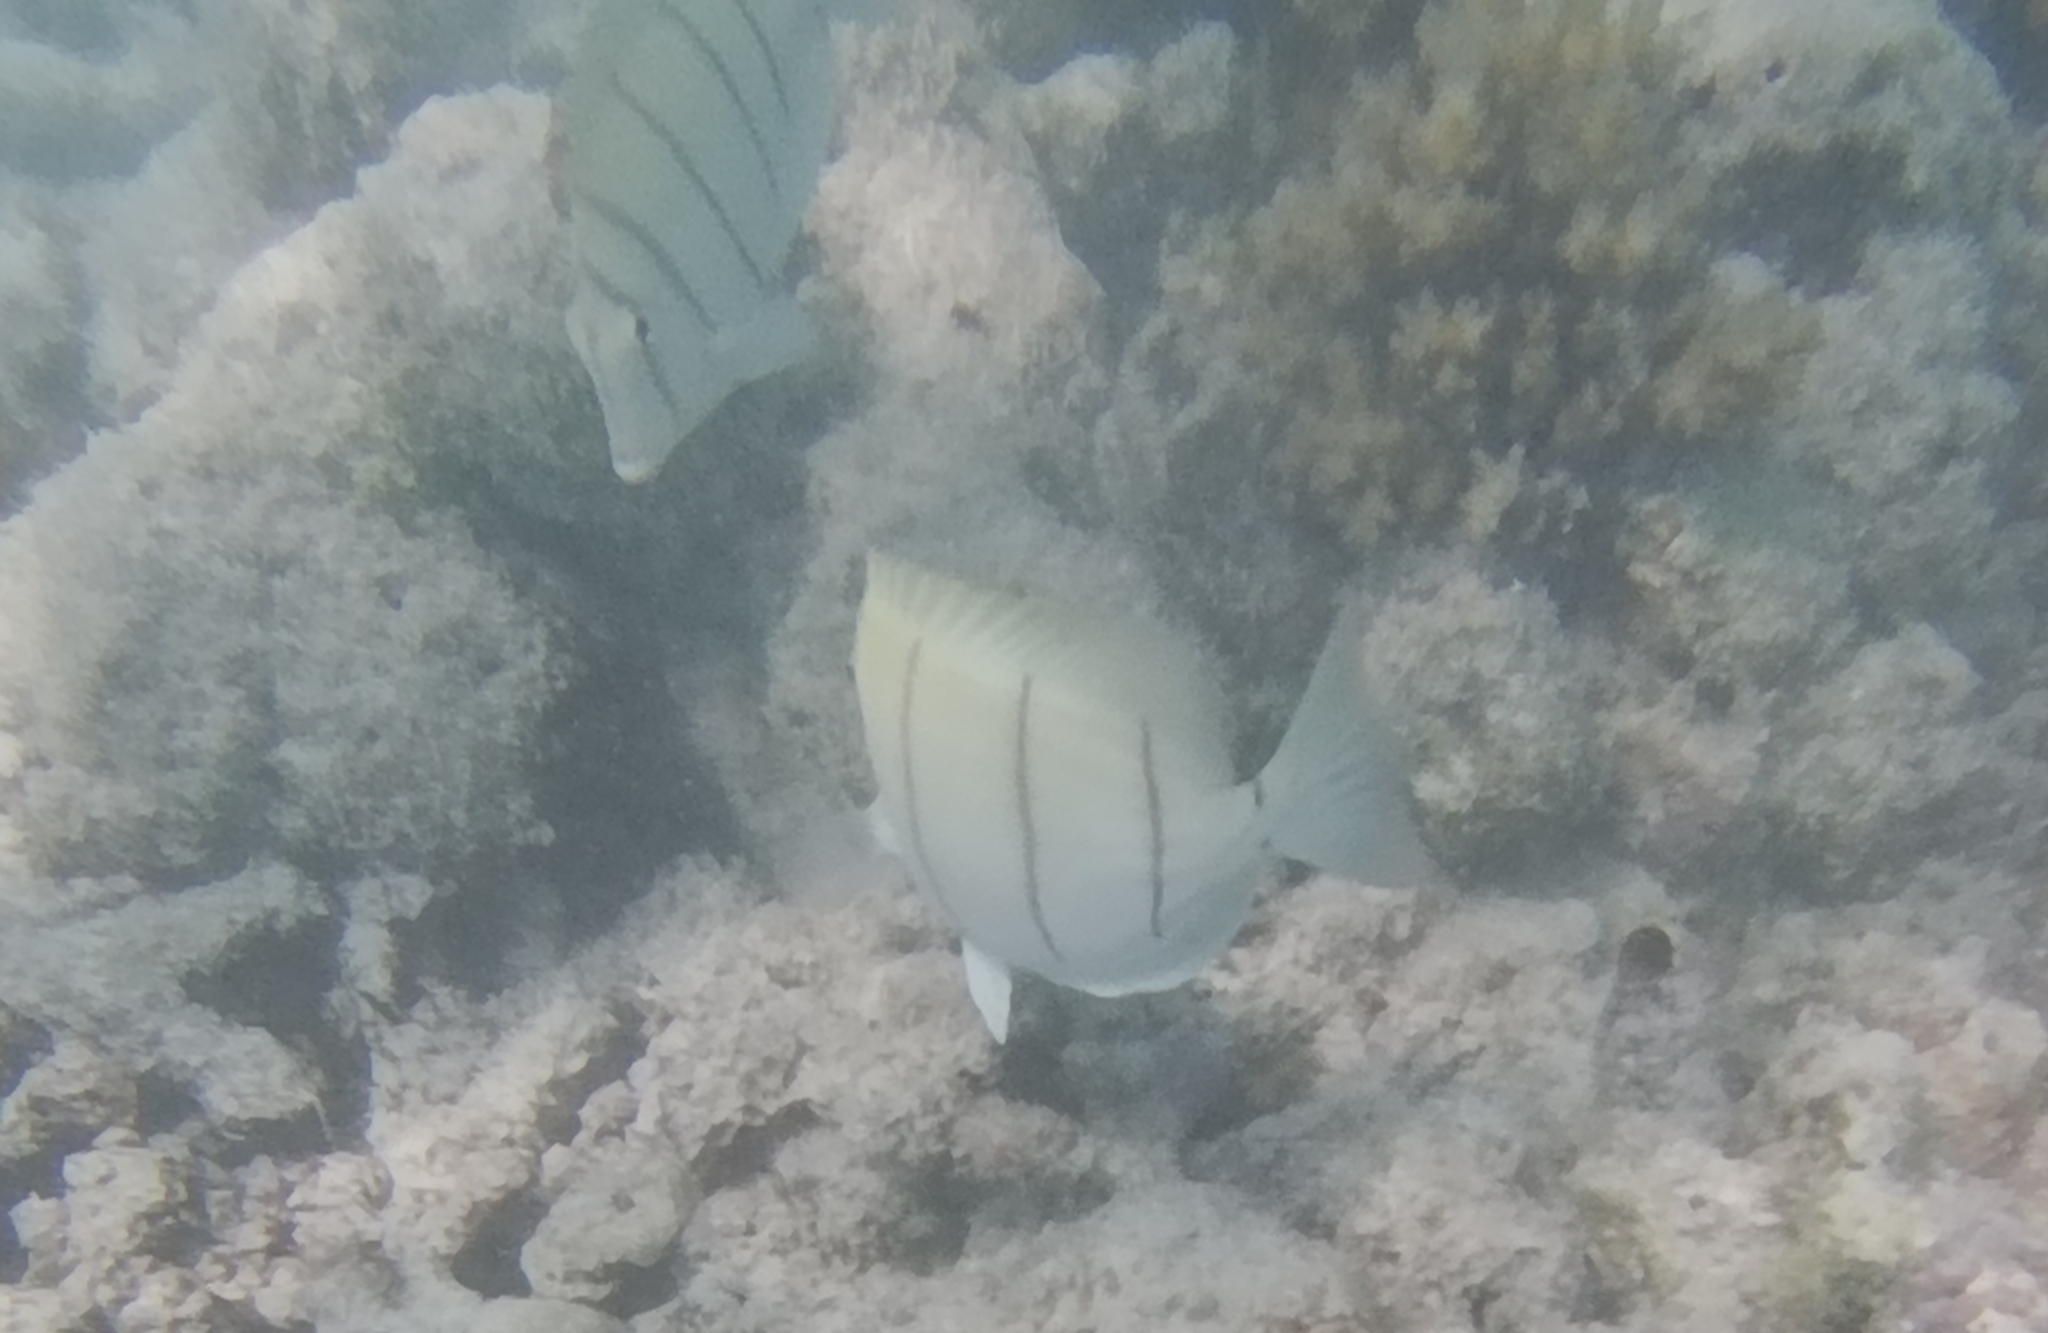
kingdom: Animalia
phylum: Chordata
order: Perciformes
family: Acanthuridae
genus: Acanthurus
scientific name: Acanthurus triostegus
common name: Convict surgeonfish
